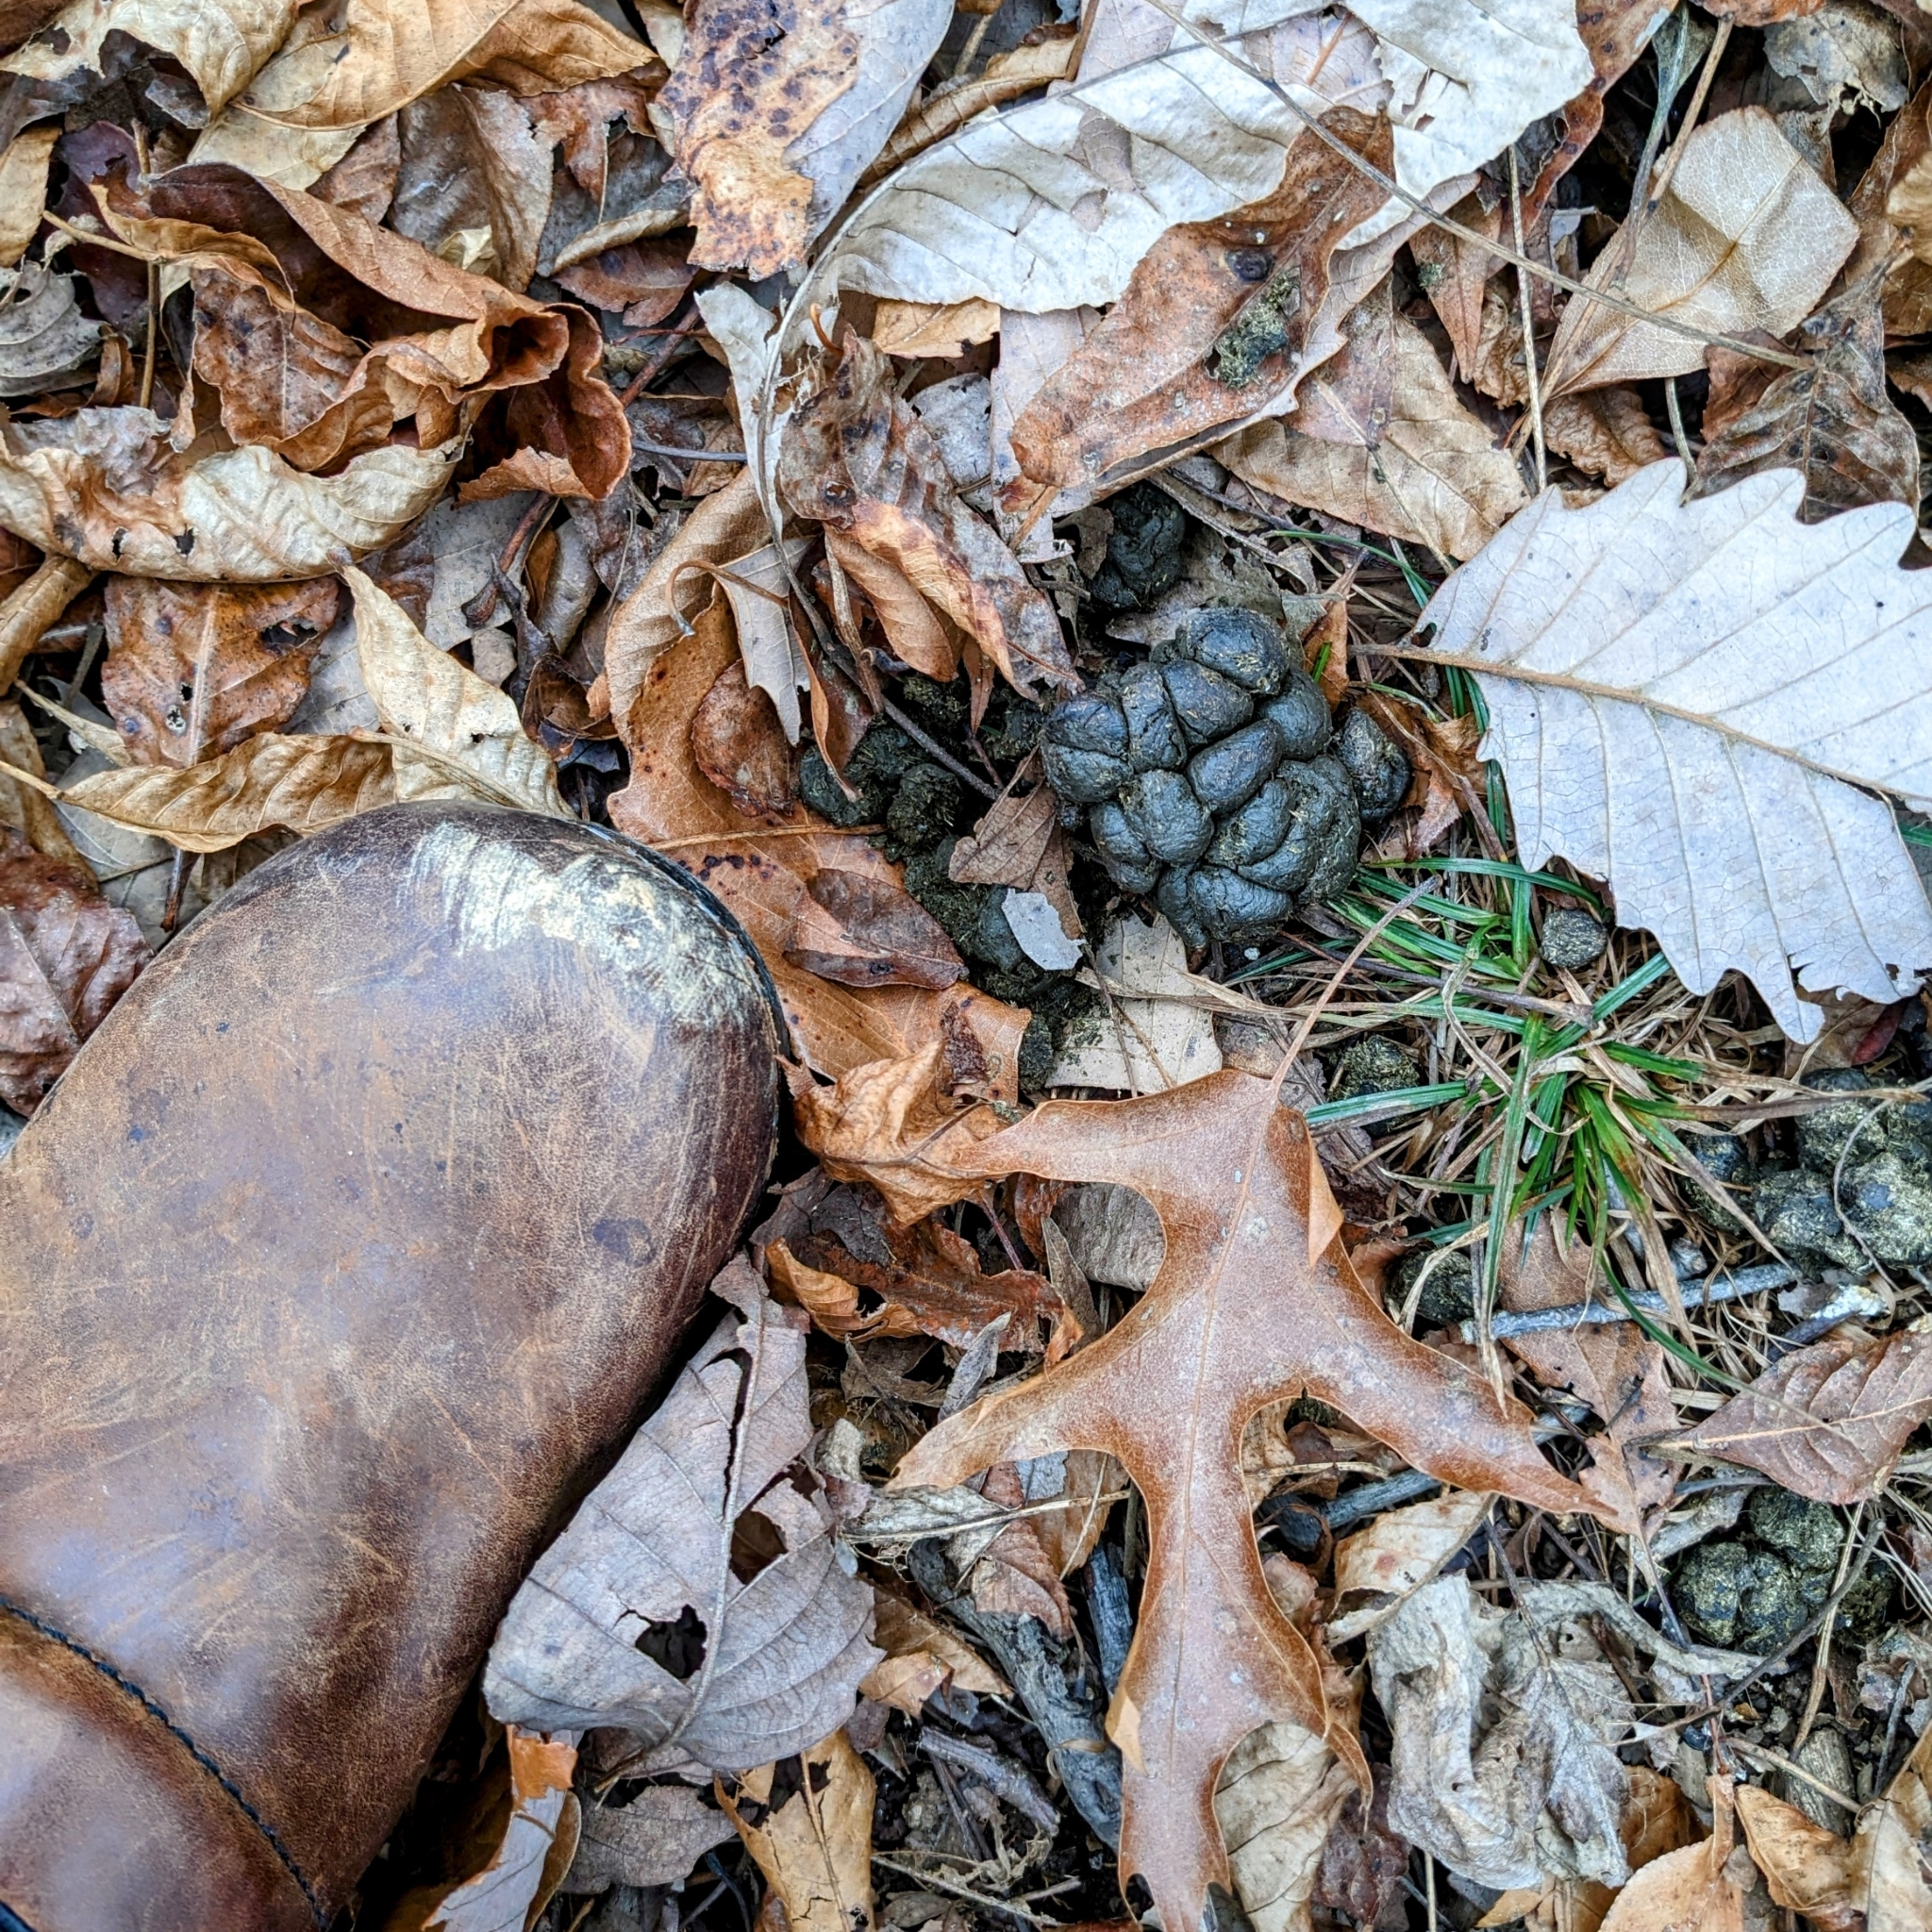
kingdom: Animalia
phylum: Chordata
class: Mammalia
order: Artiodactyla
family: Cervidae
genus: Odocoileus
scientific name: Odocoileus virginianus
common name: White-tailed deer
